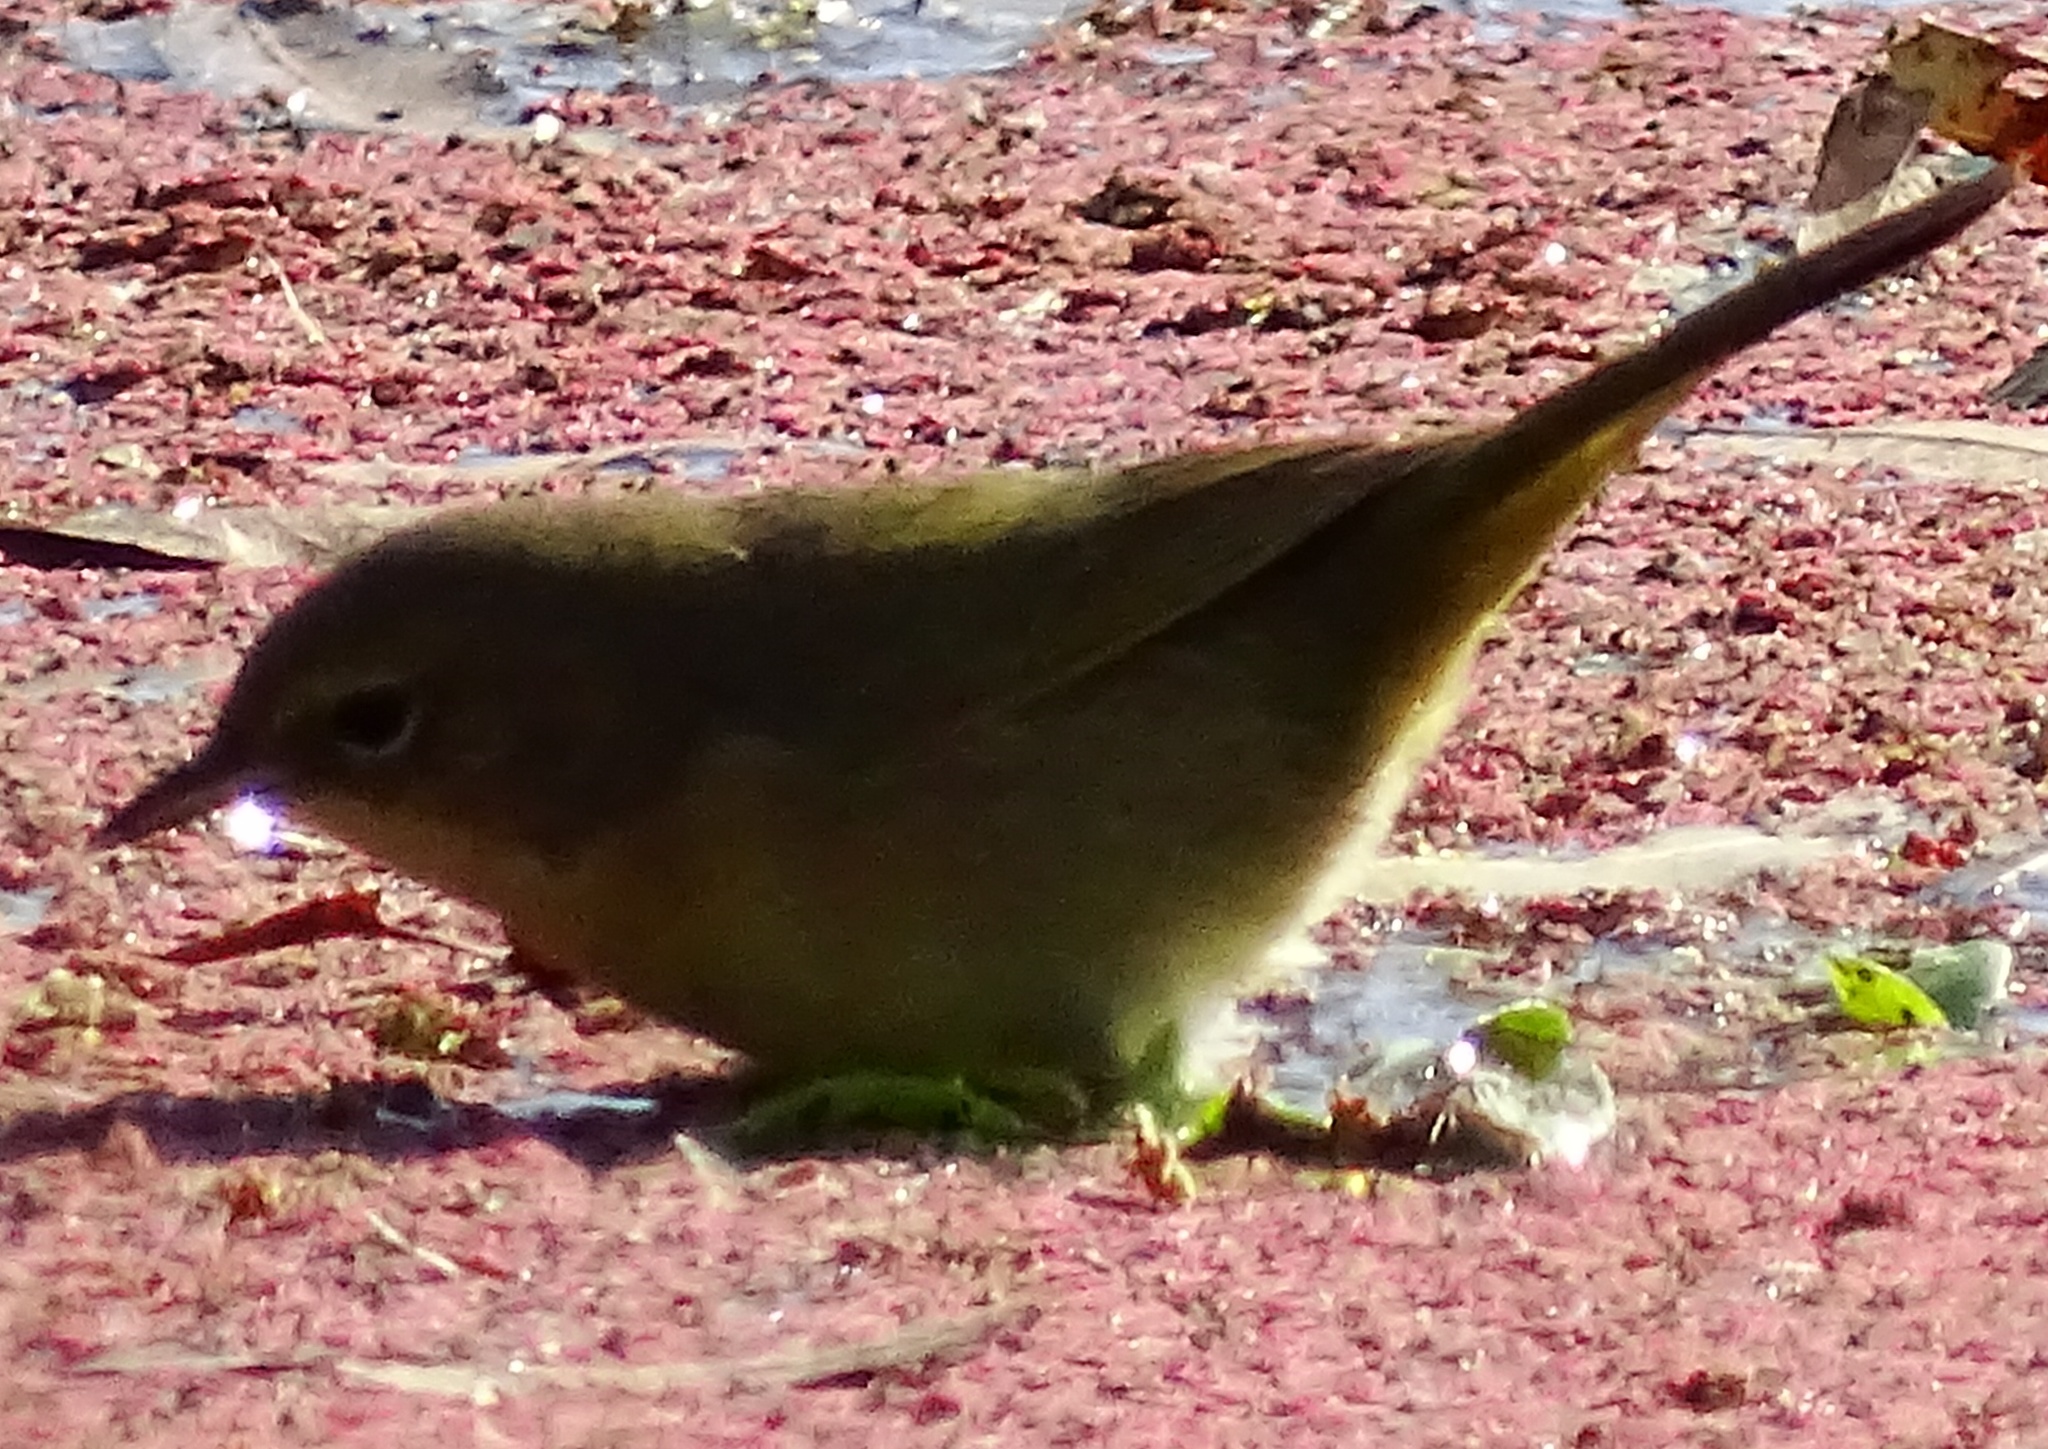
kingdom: Animalia
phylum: Chordata
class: Aves
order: Passeriformes
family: Parulidae
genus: Geothlypis
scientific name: Geothlypis trichas
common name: Common yellowthroat
